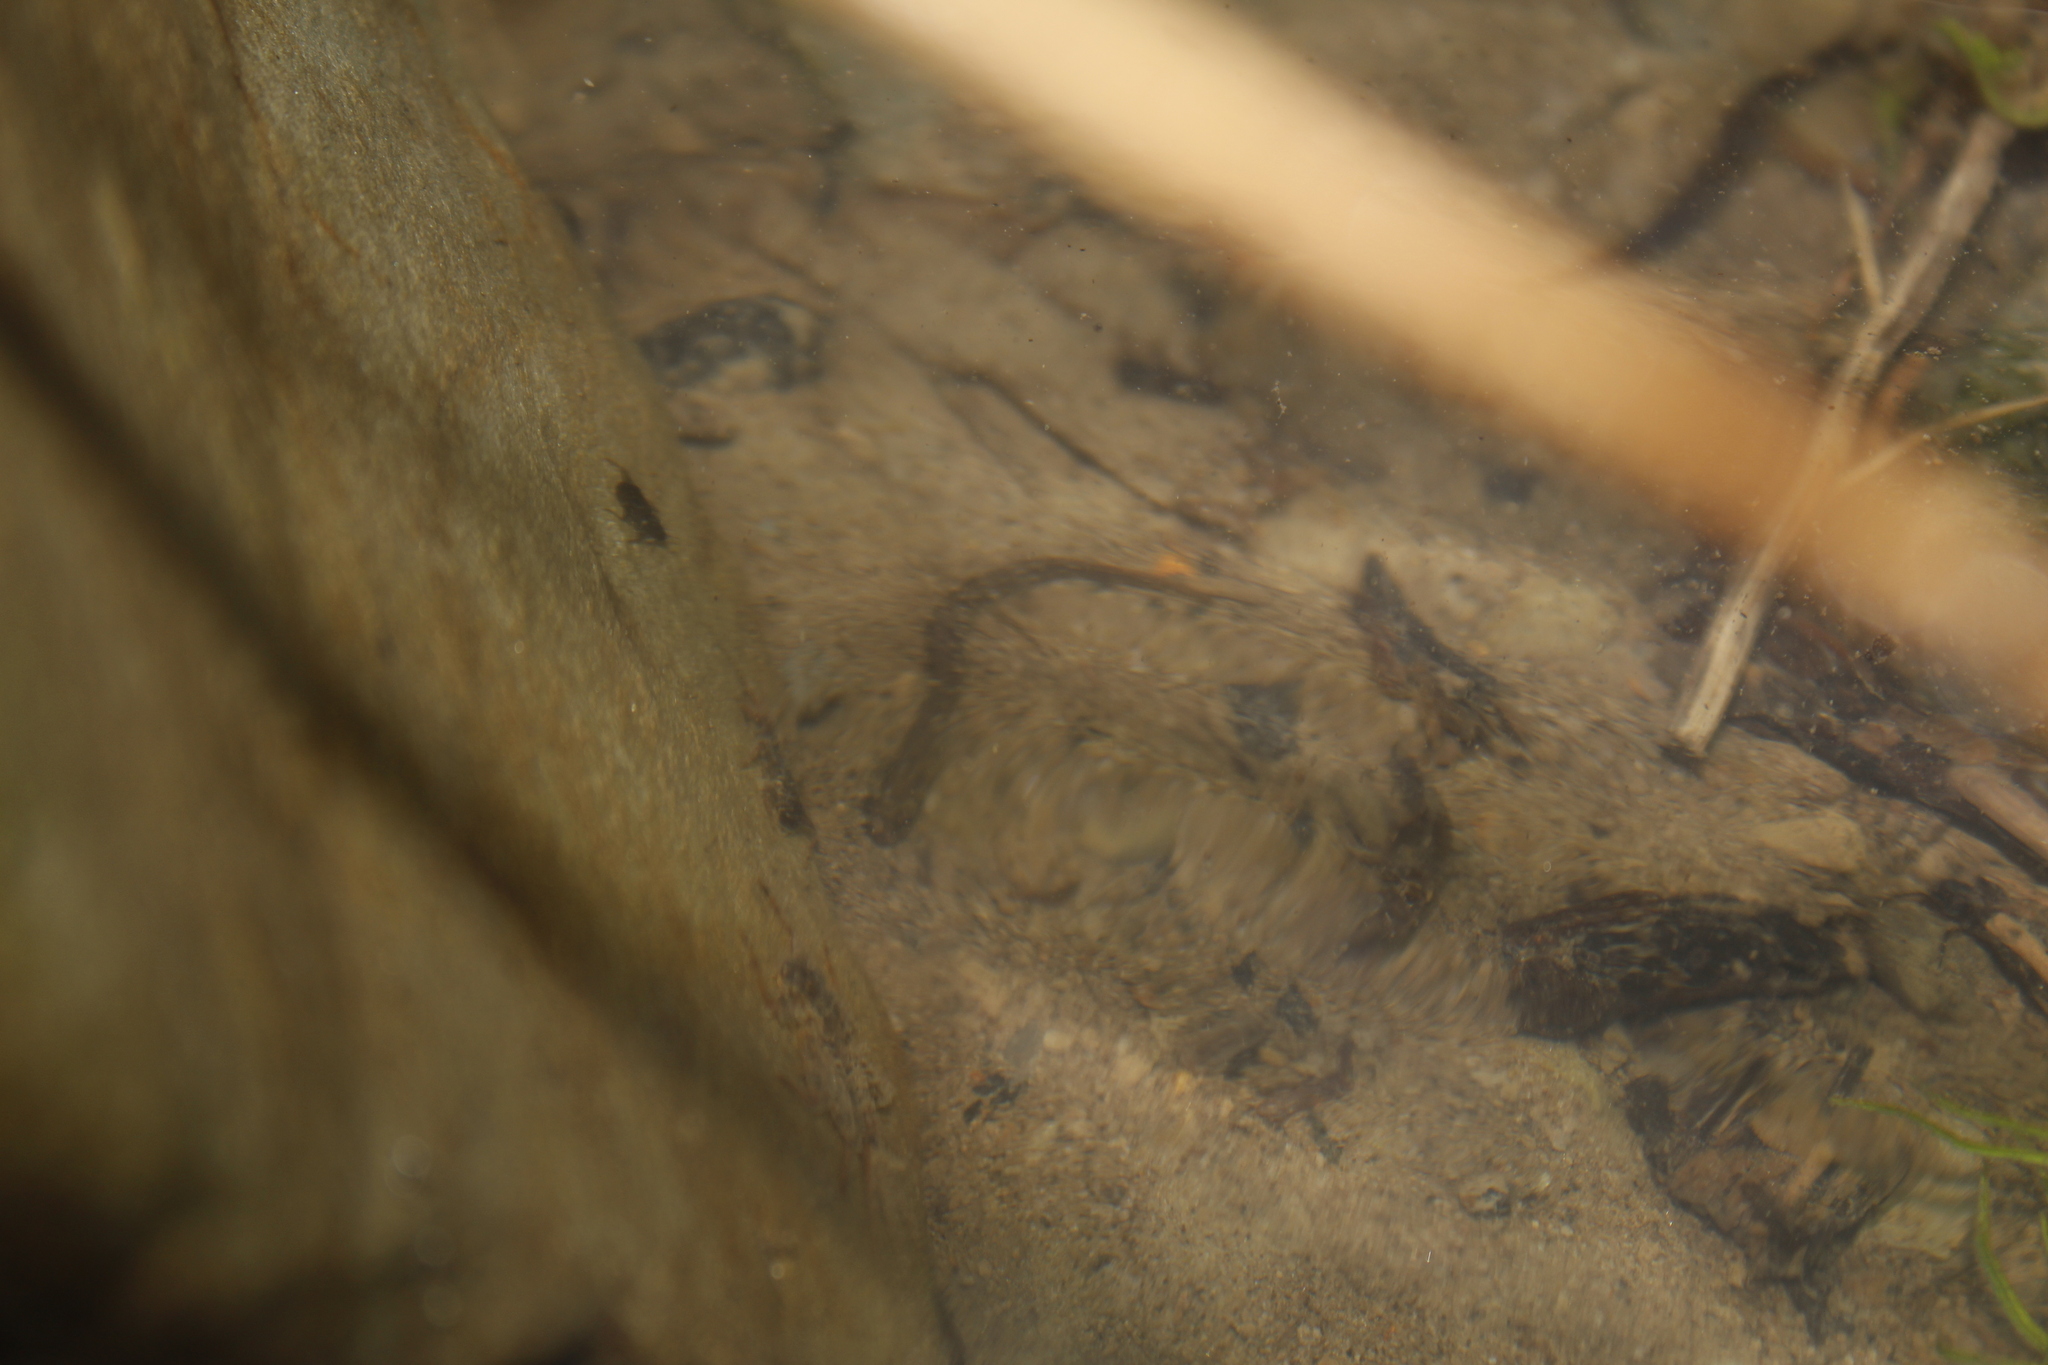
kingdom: Animalia
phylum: Chordata
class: Amphibia
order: Caudata
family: Plethodontidae
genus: Eurycea
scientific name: Eurycea bislineata
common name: Northern two-lined salamander
